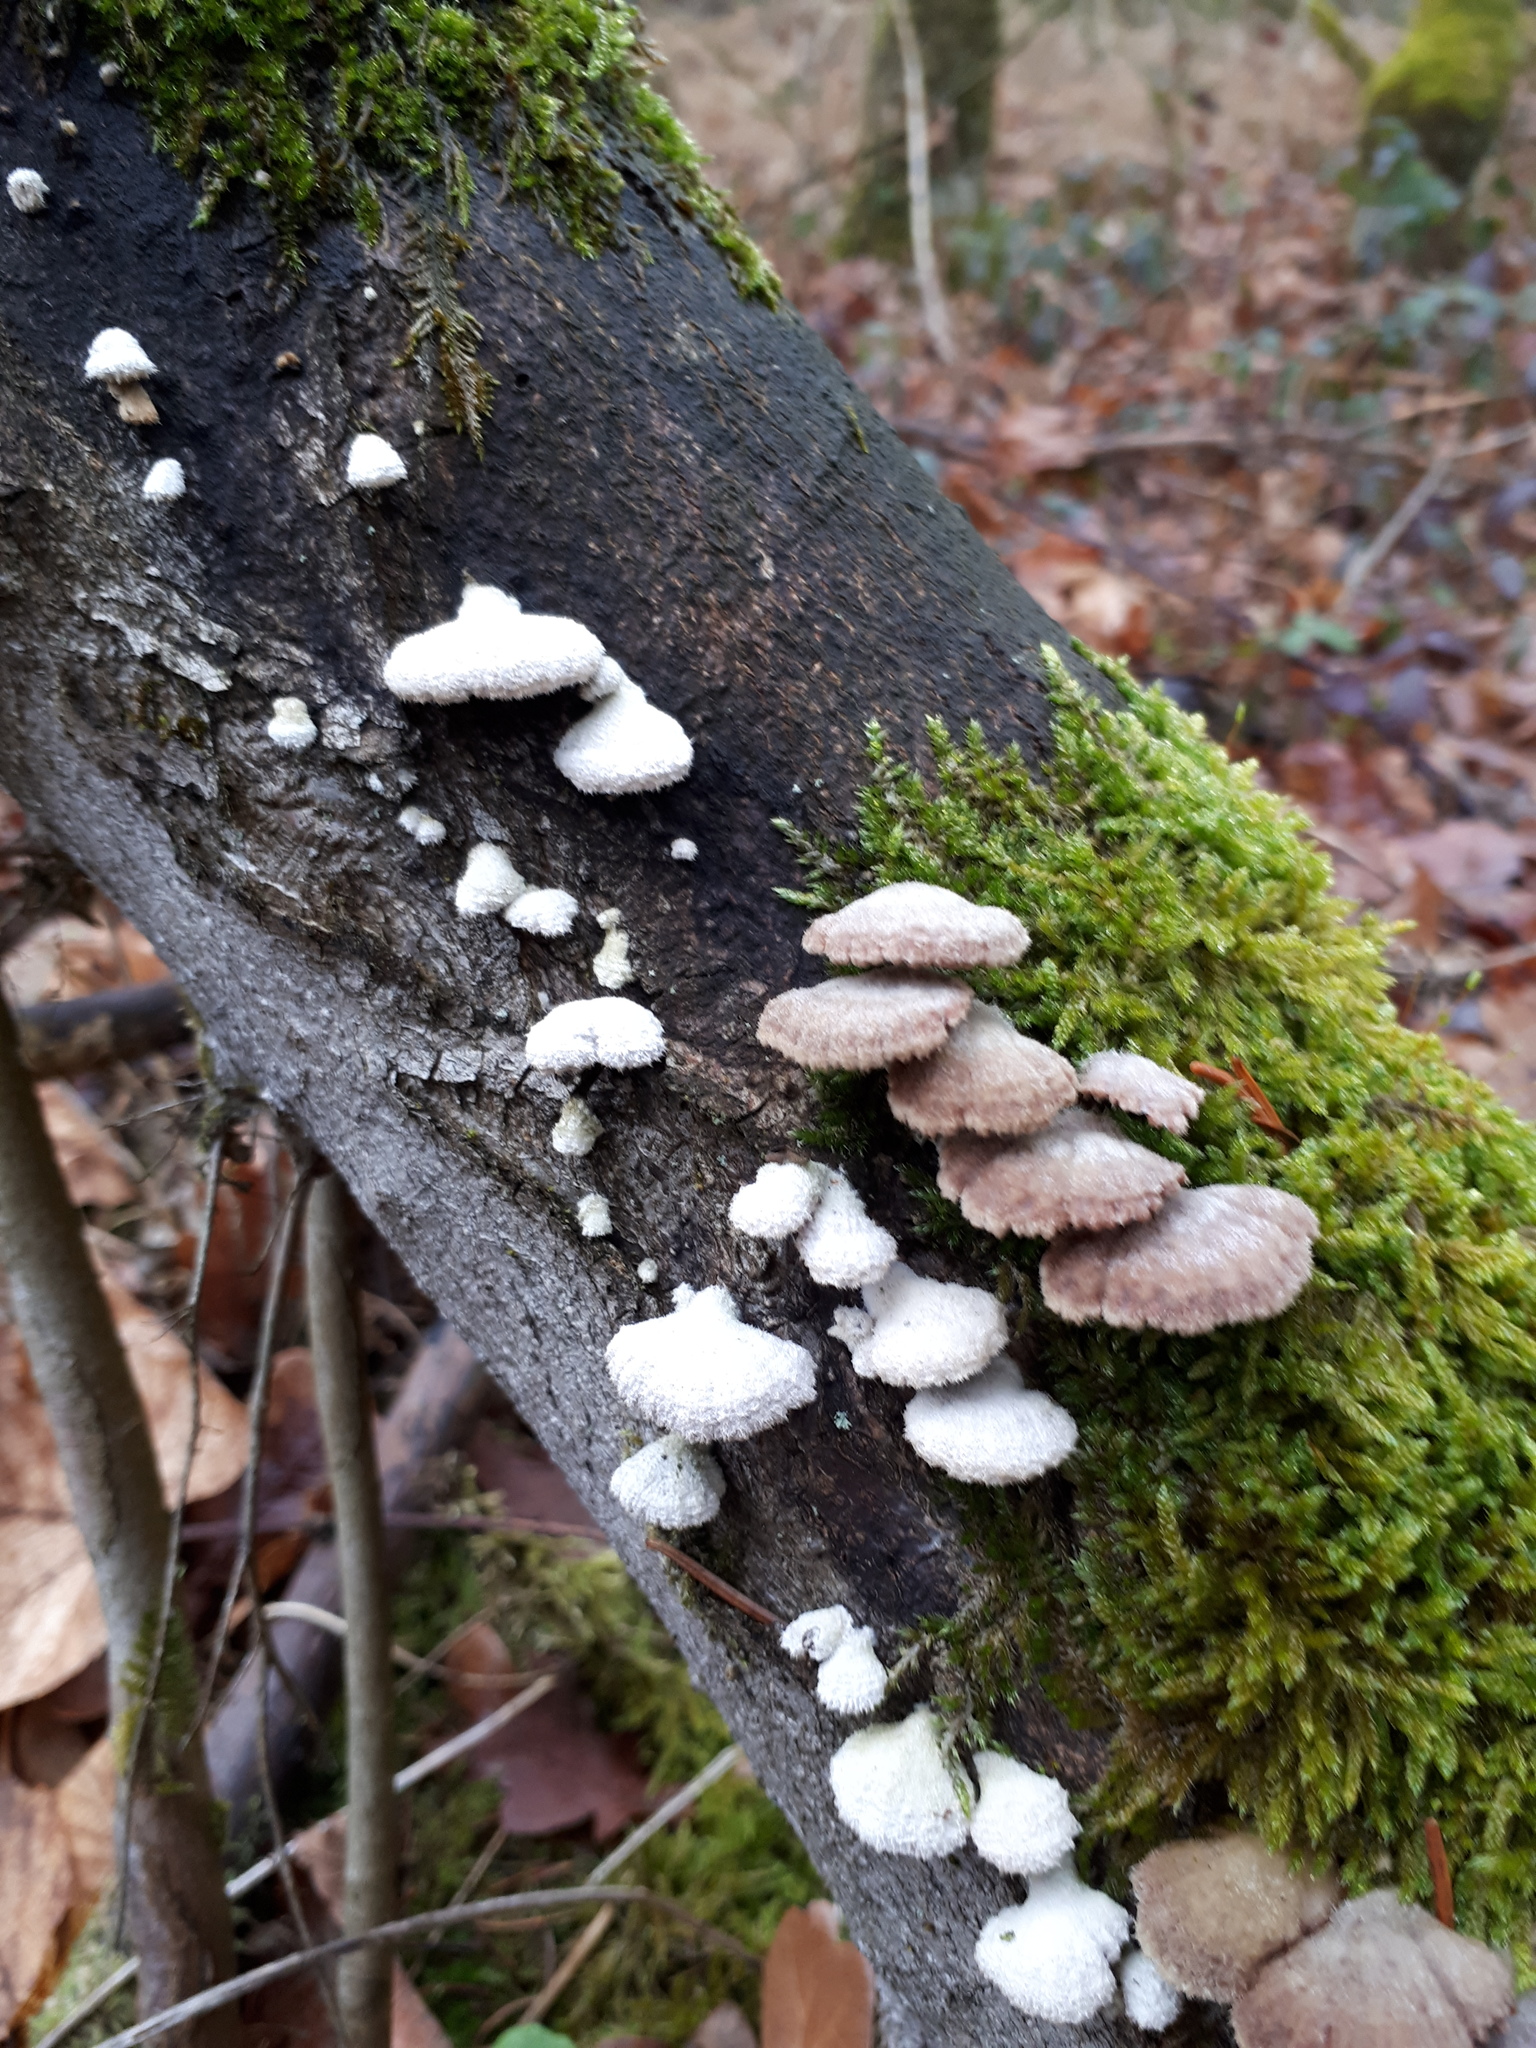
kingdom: Fungi
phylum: Basidiomycota
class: Agaricomycetes
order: Agaricales
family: Schizophyllaceae
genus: Schizophyllum
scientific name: Schizophyllum commune
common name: Common porecrust
